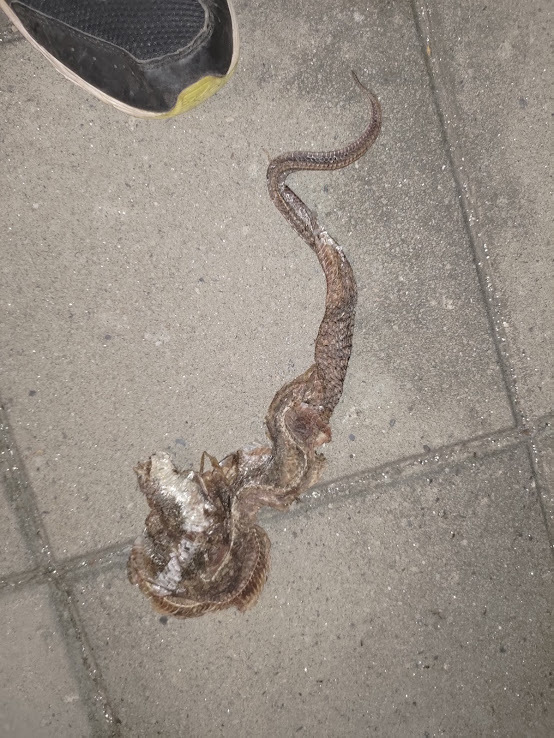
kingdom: Animalia
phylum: Chordata
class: Squamata
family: Colubridae
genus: Ptyas
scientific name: Ptyas mucosa
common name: Oriental ratsnake
